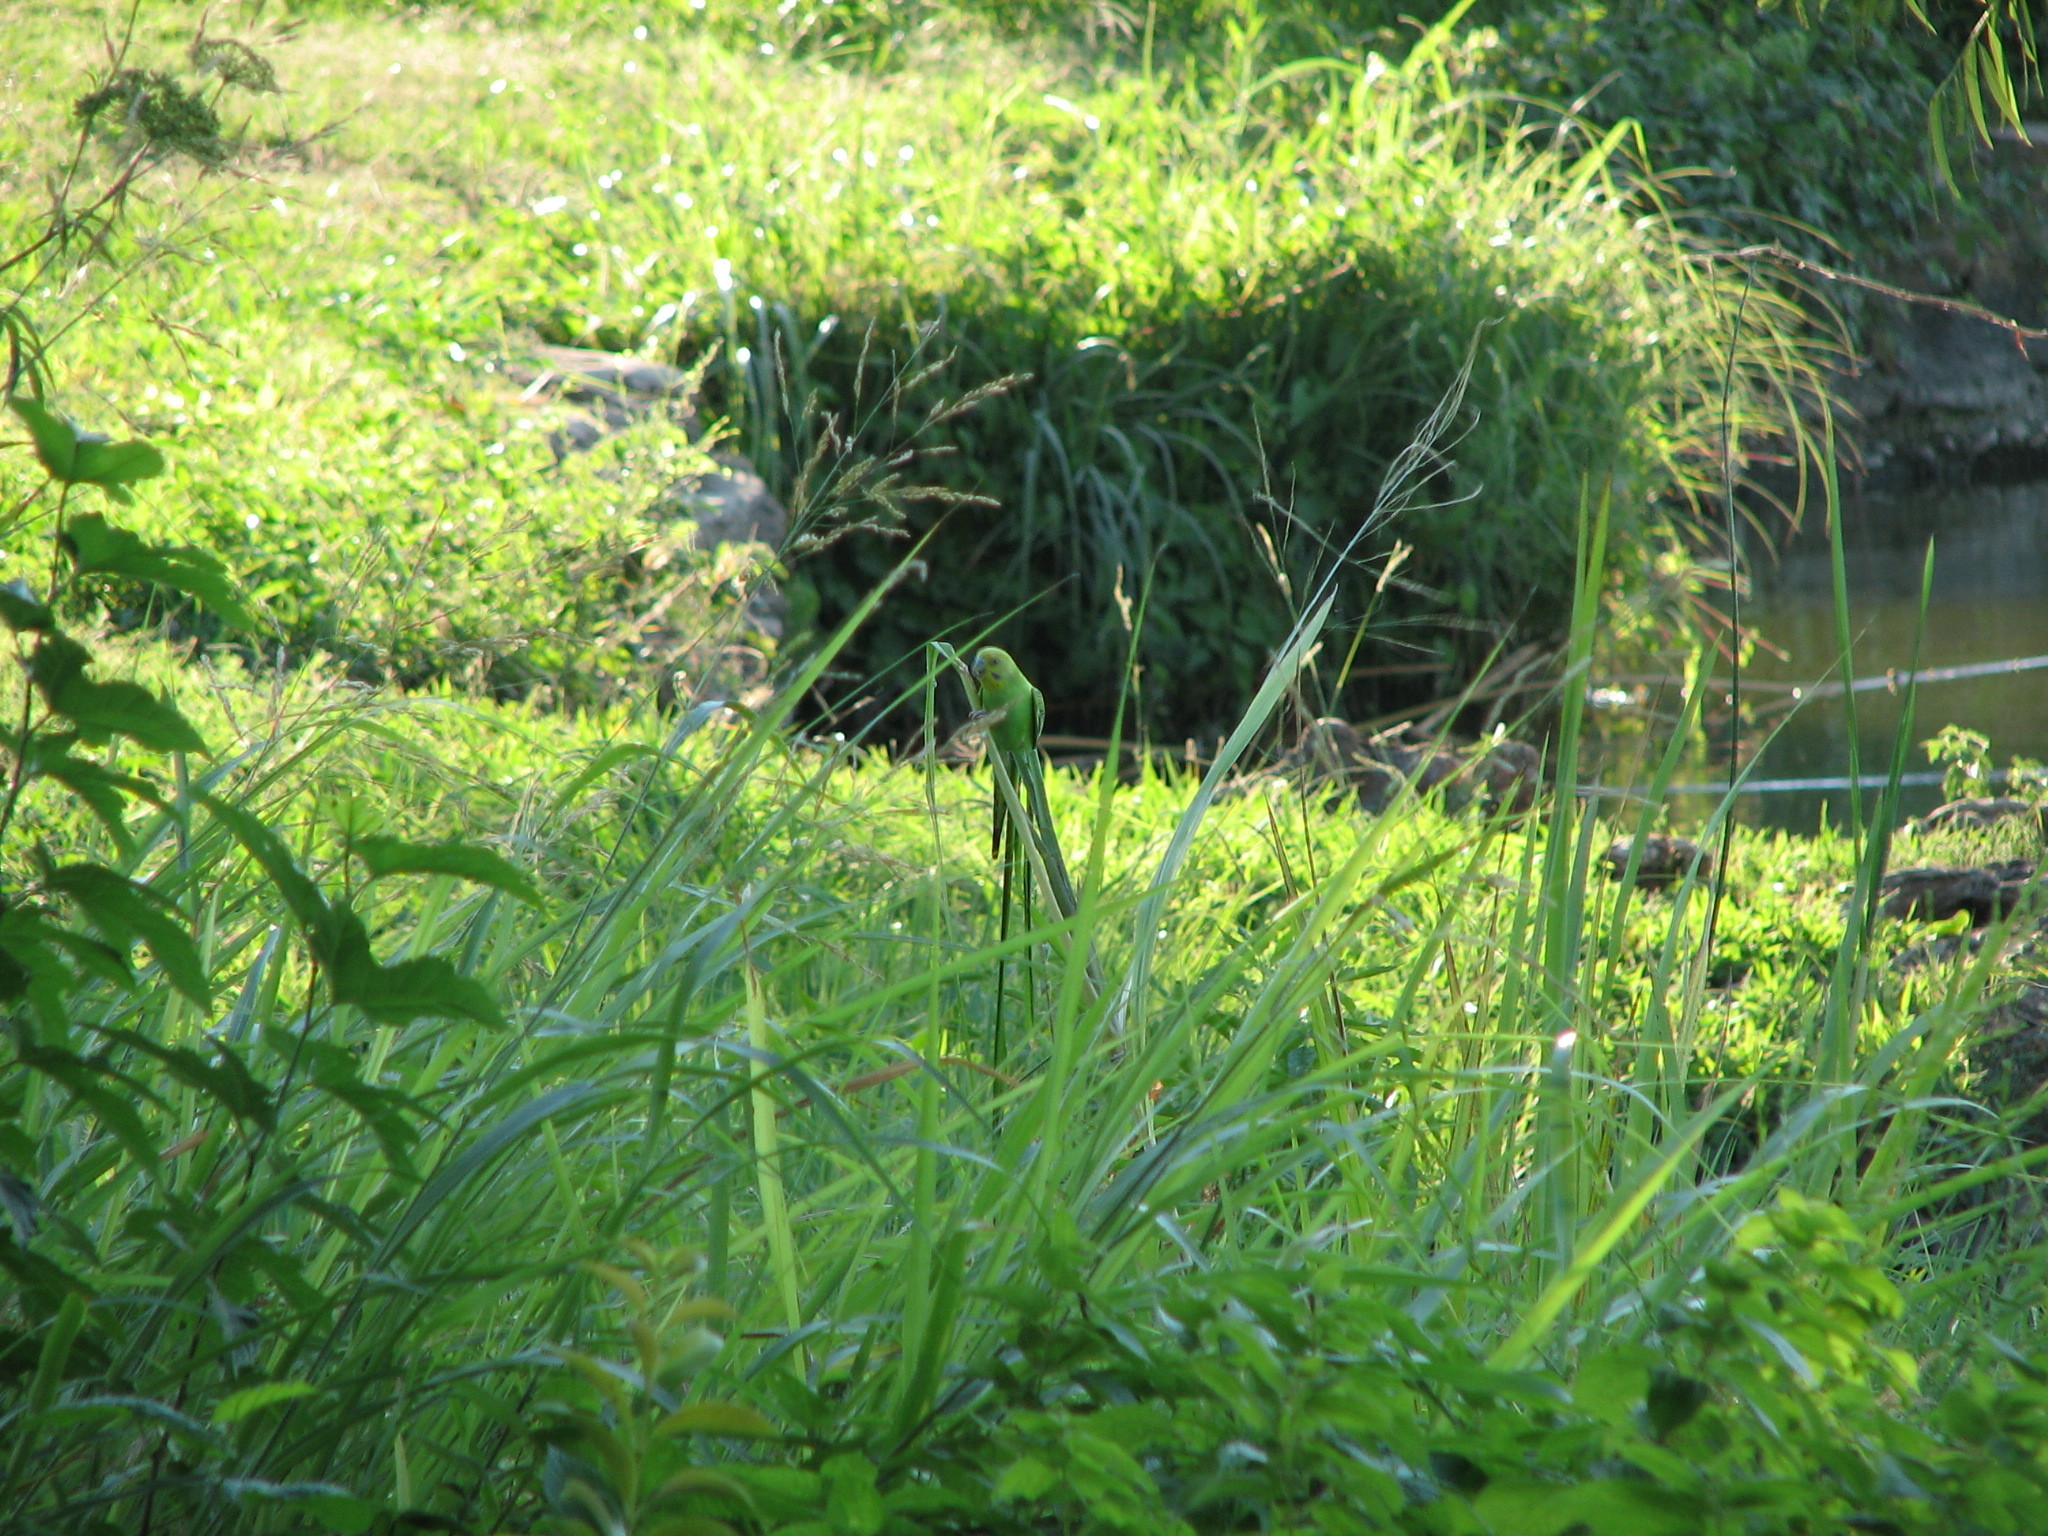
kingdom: Animalia
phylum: Chordata
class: Aves
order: Psittaciformes
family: Psittacidae
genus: Melopsittacus
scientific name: Melopsittacus undulatus
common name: Budgerigar
